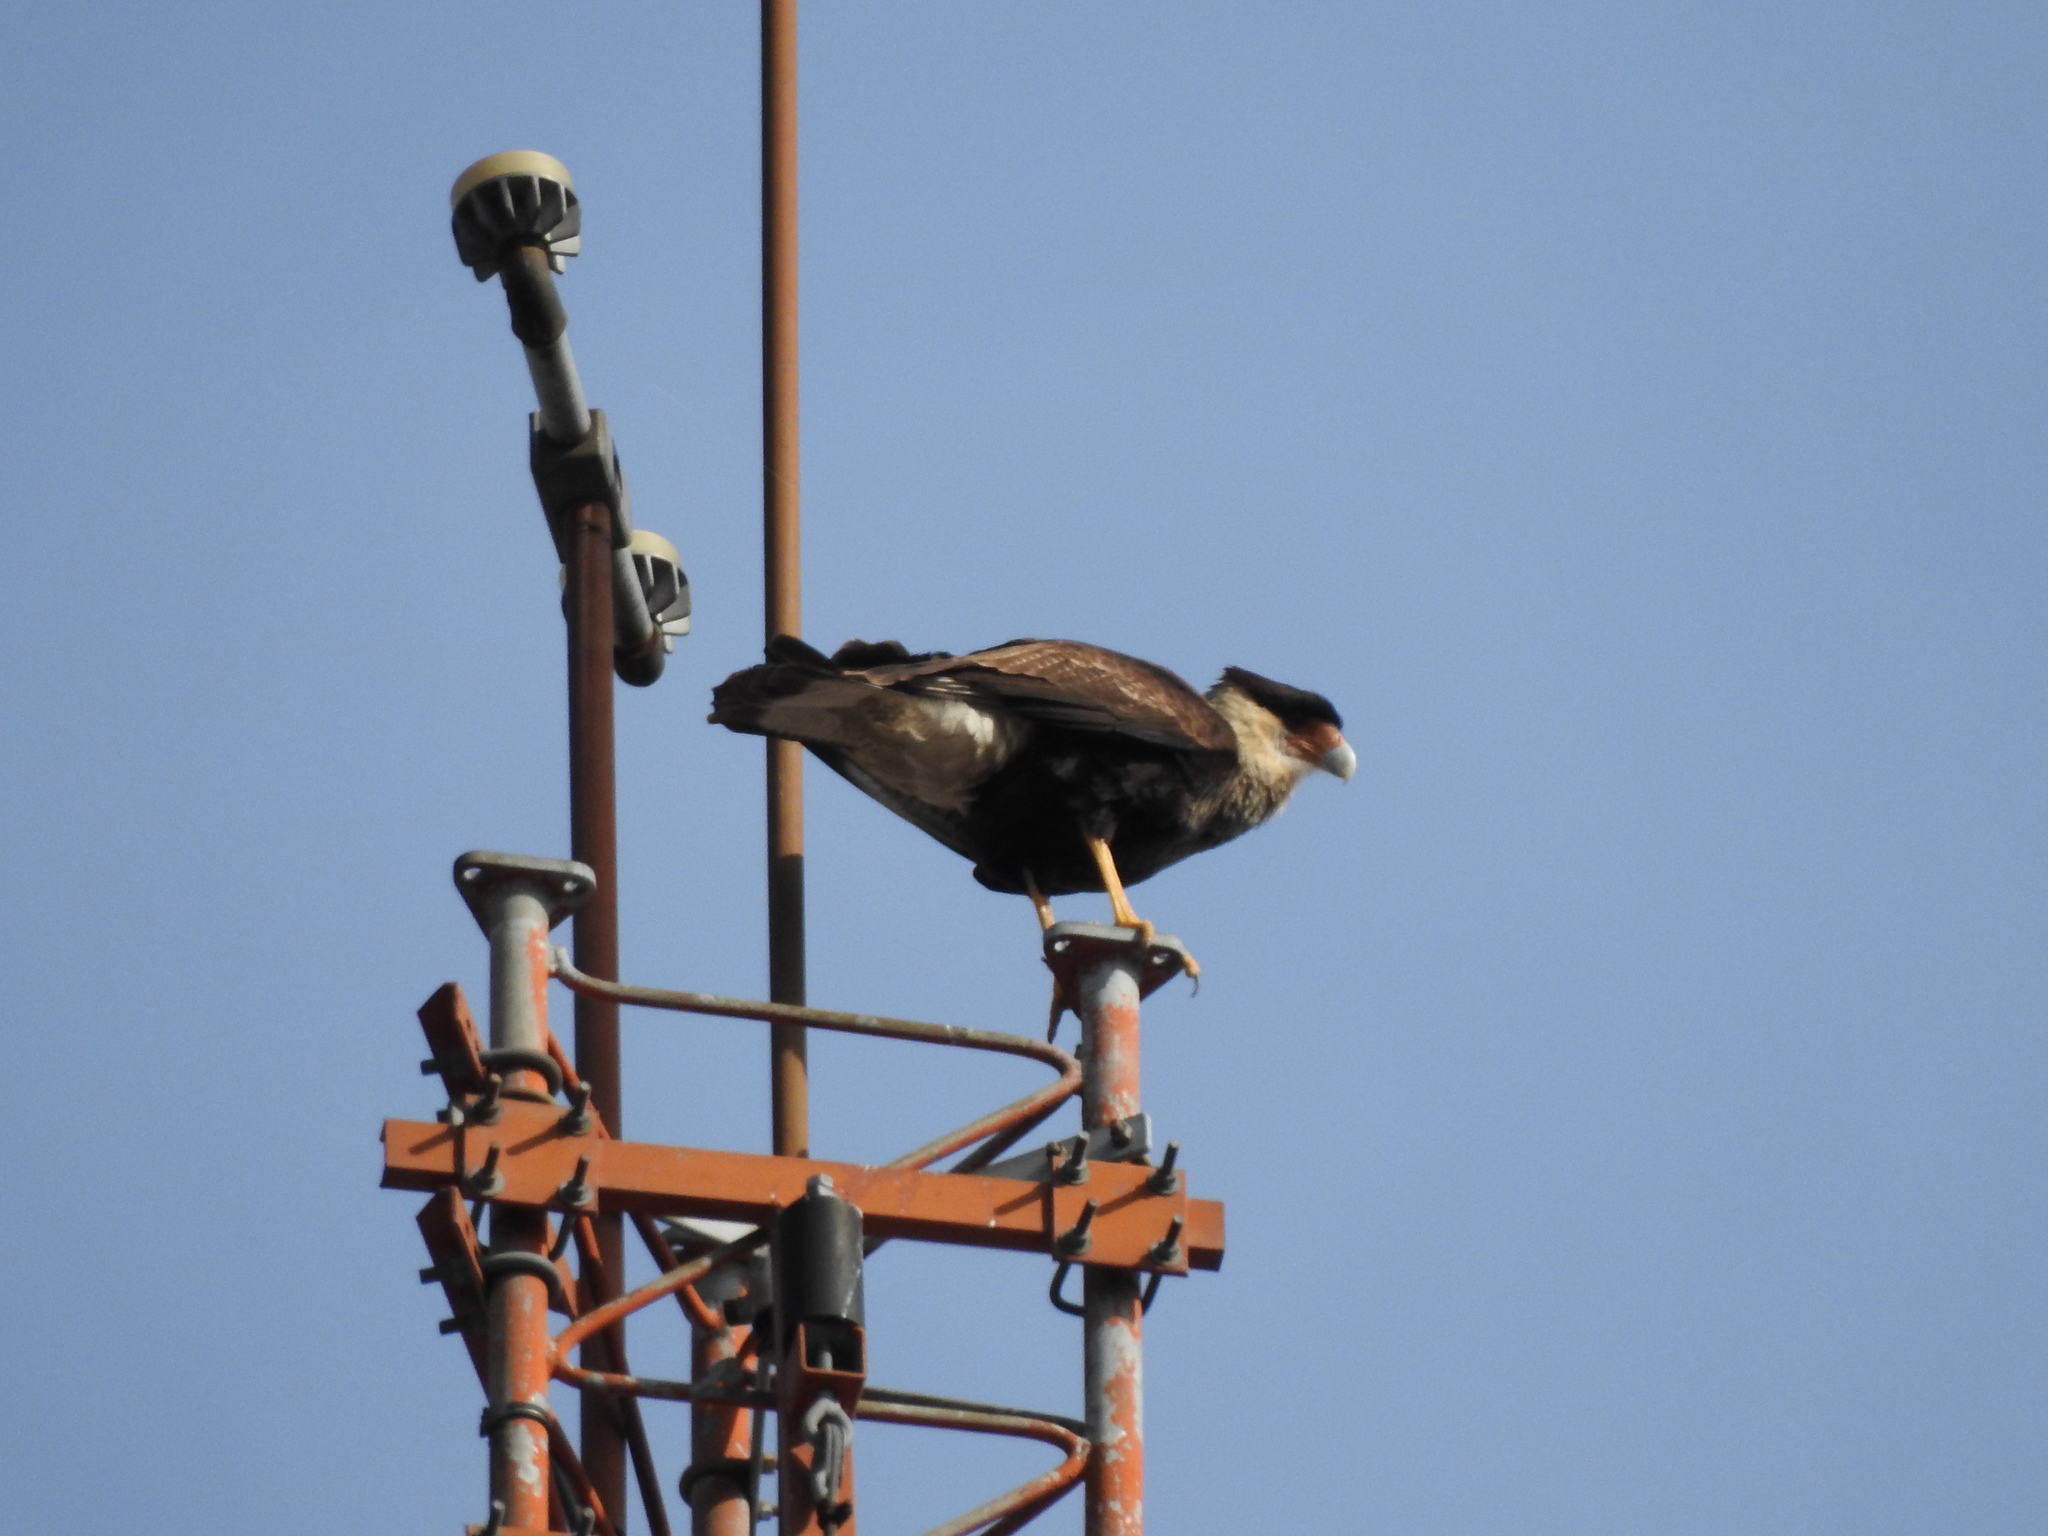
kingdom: Animalia
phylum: Chordata
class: Aves
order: Falconiformes
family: Falconidae
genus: Caracara
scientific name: Caracara plancus
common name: Southern caracara
